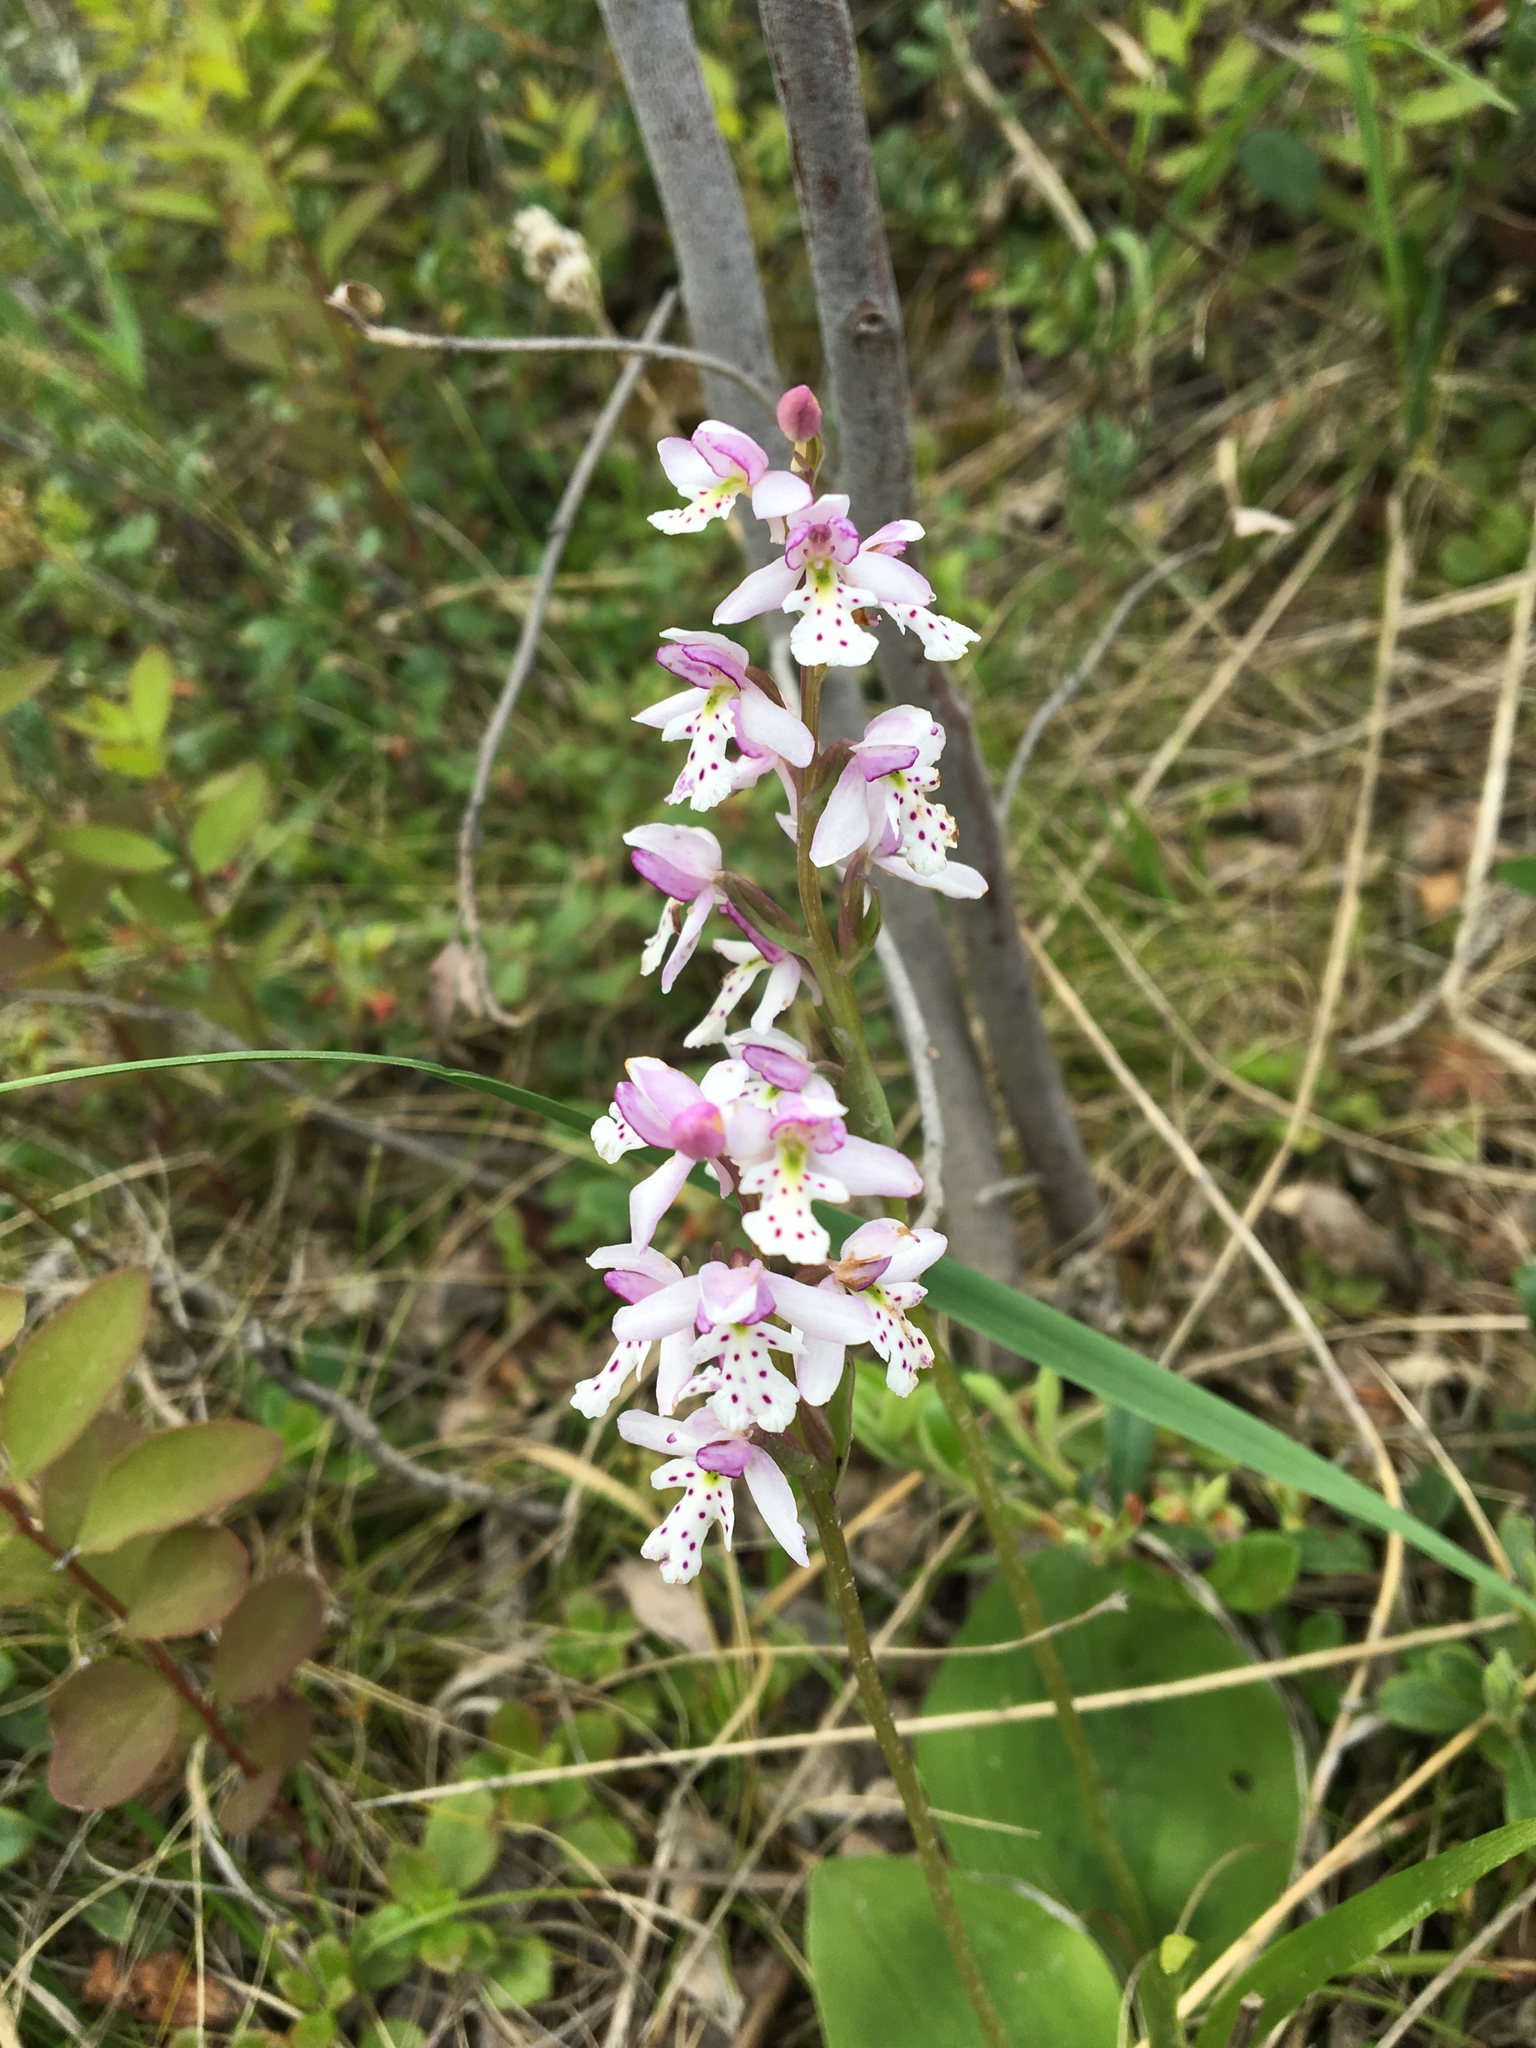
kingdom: Plantae
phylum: Tracheophyta
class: Liliopsida
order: Asparagales
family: Orchidaceae
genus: Galearis
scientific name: Galearis rotundifolia
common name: One-leaved orchis
